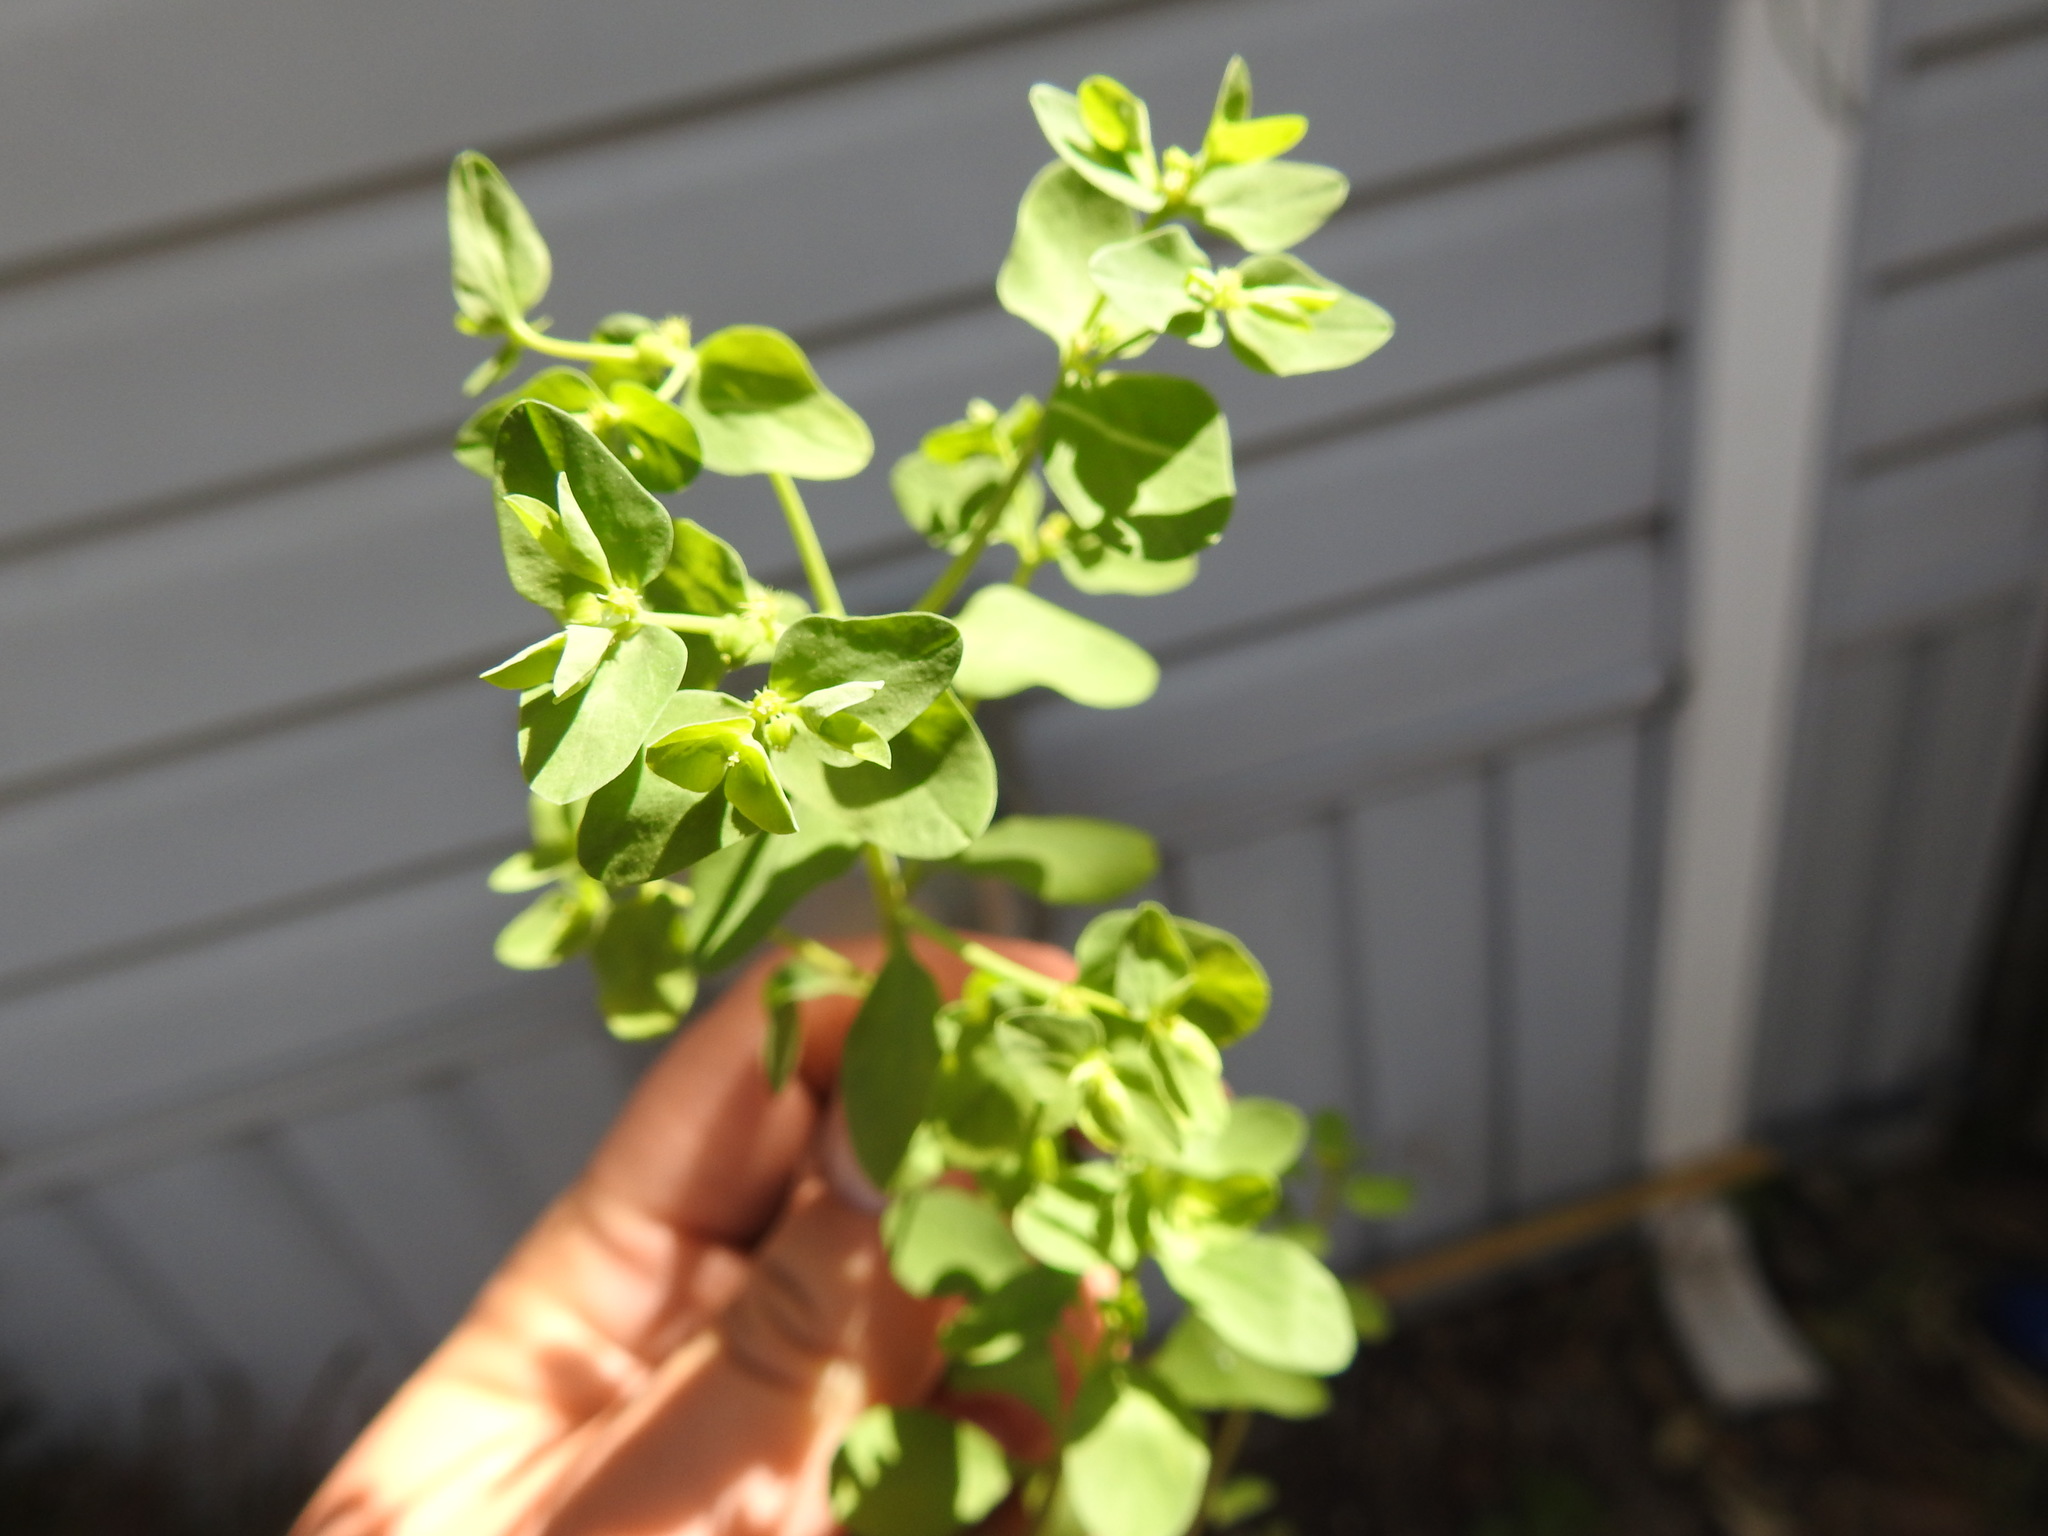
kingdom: Plantae
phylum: Tracheophyta
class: Magnoliopsida
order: Malpighiales
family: Euphorbiaceae
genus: Euphorbia
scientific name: Euphorbia peplus
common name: Petty spurge
